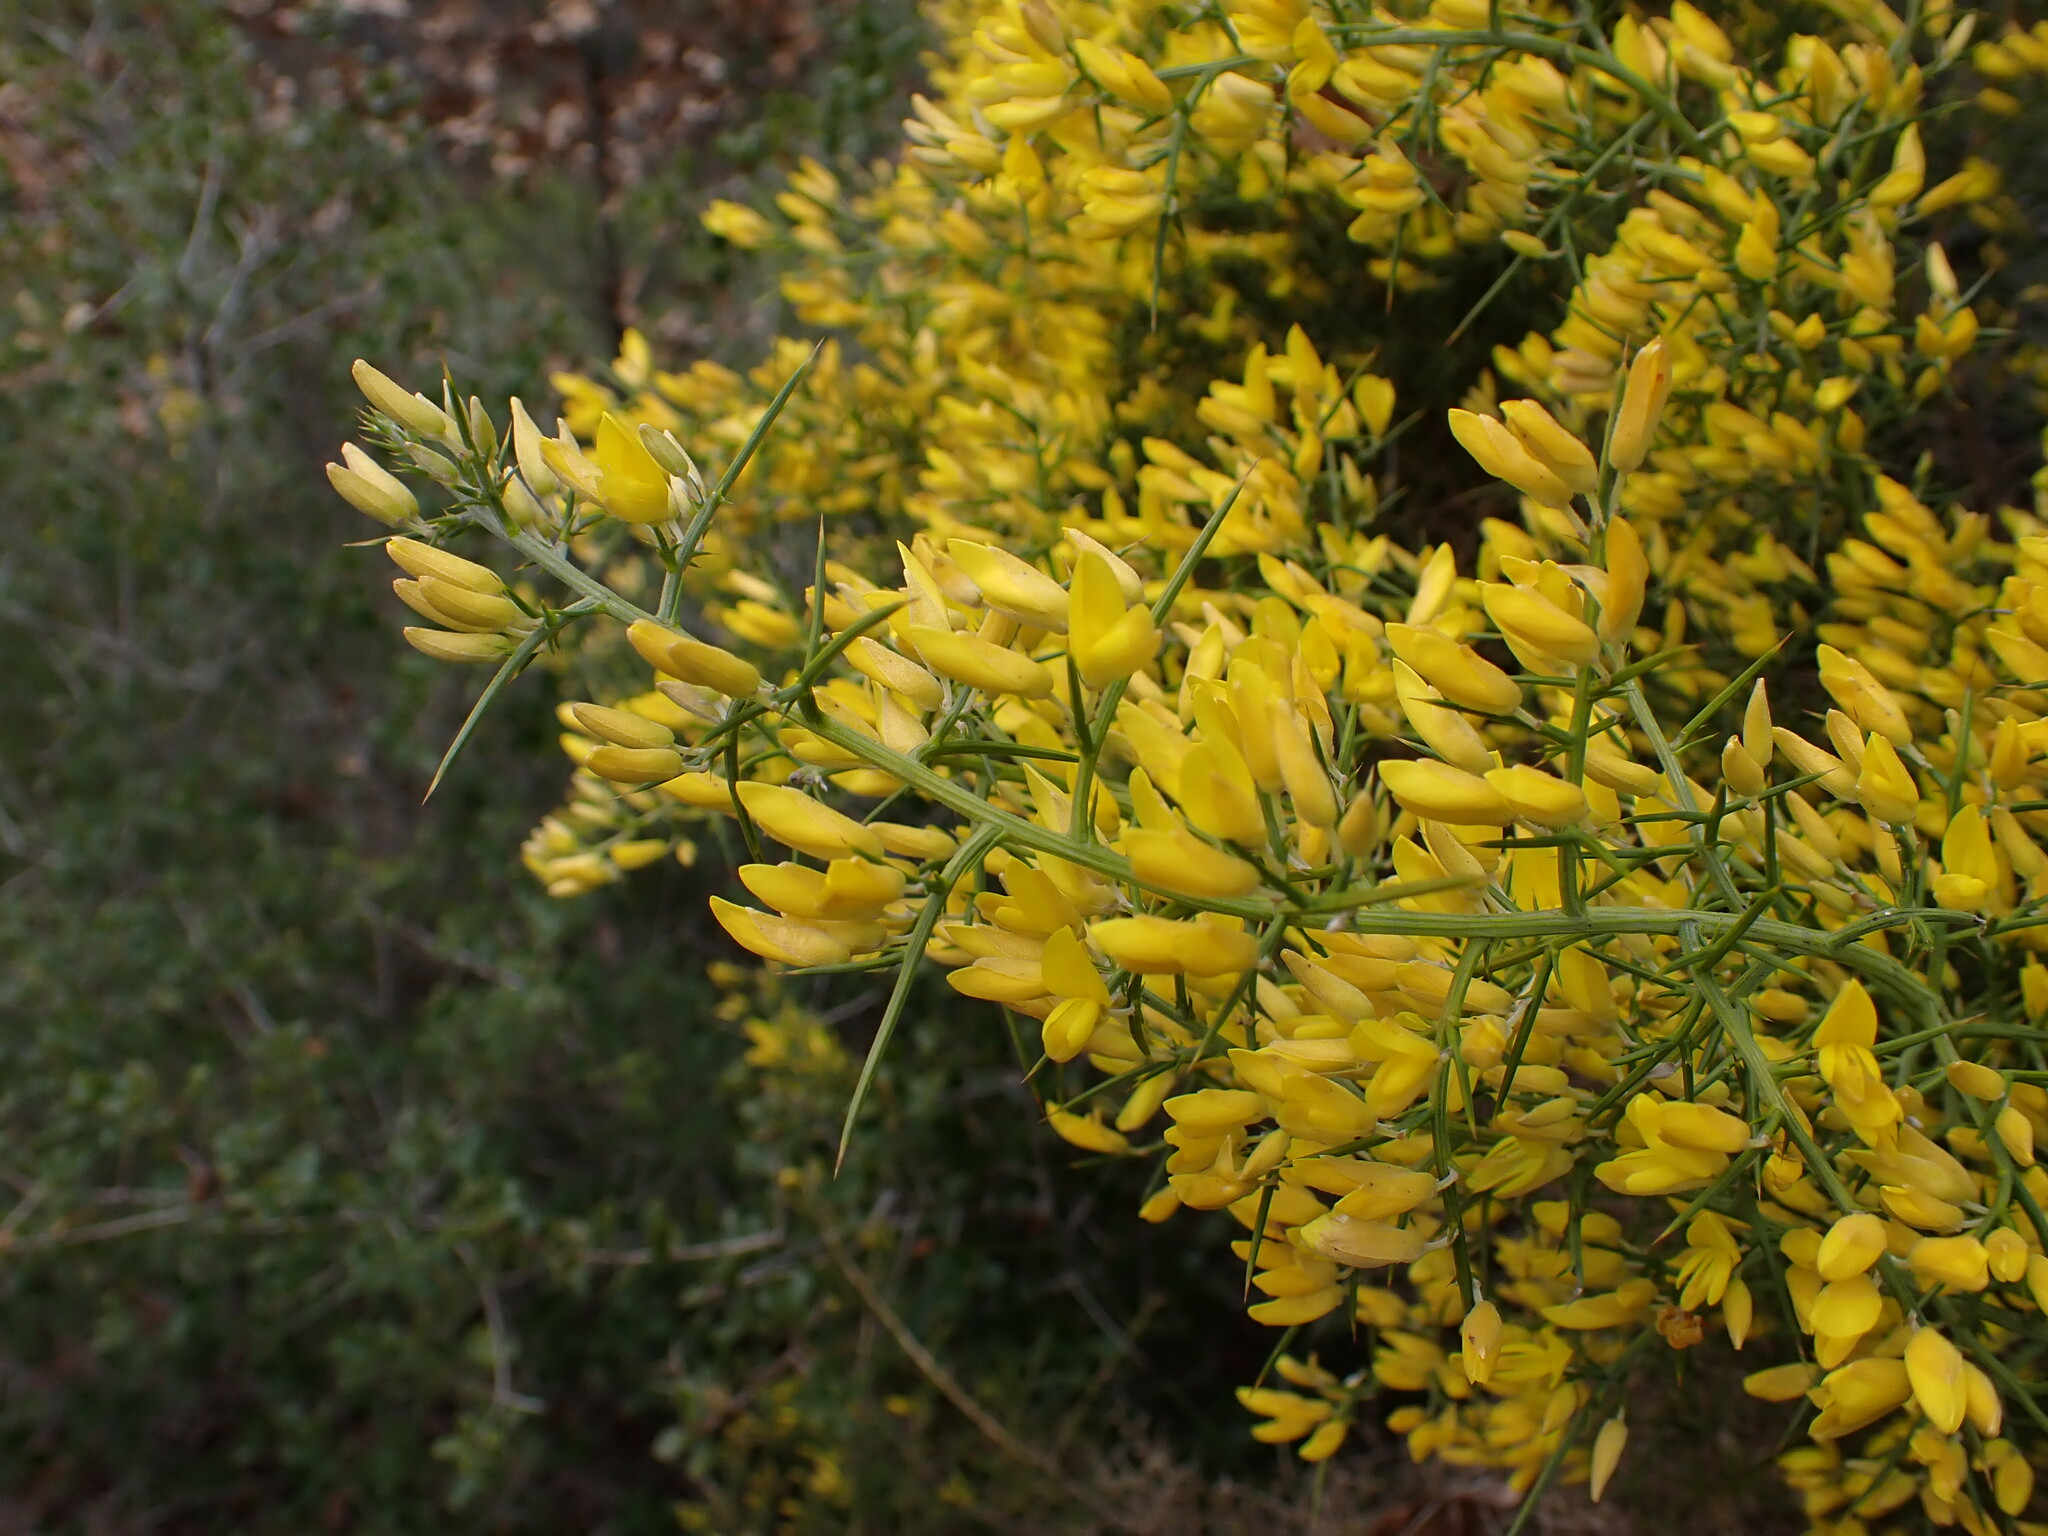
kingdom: Plantae
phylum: Tracheophyta
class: Magnoliopsida
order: Fabales
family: Fabaceae
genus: Ulex
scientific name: Ulex parviflorus
